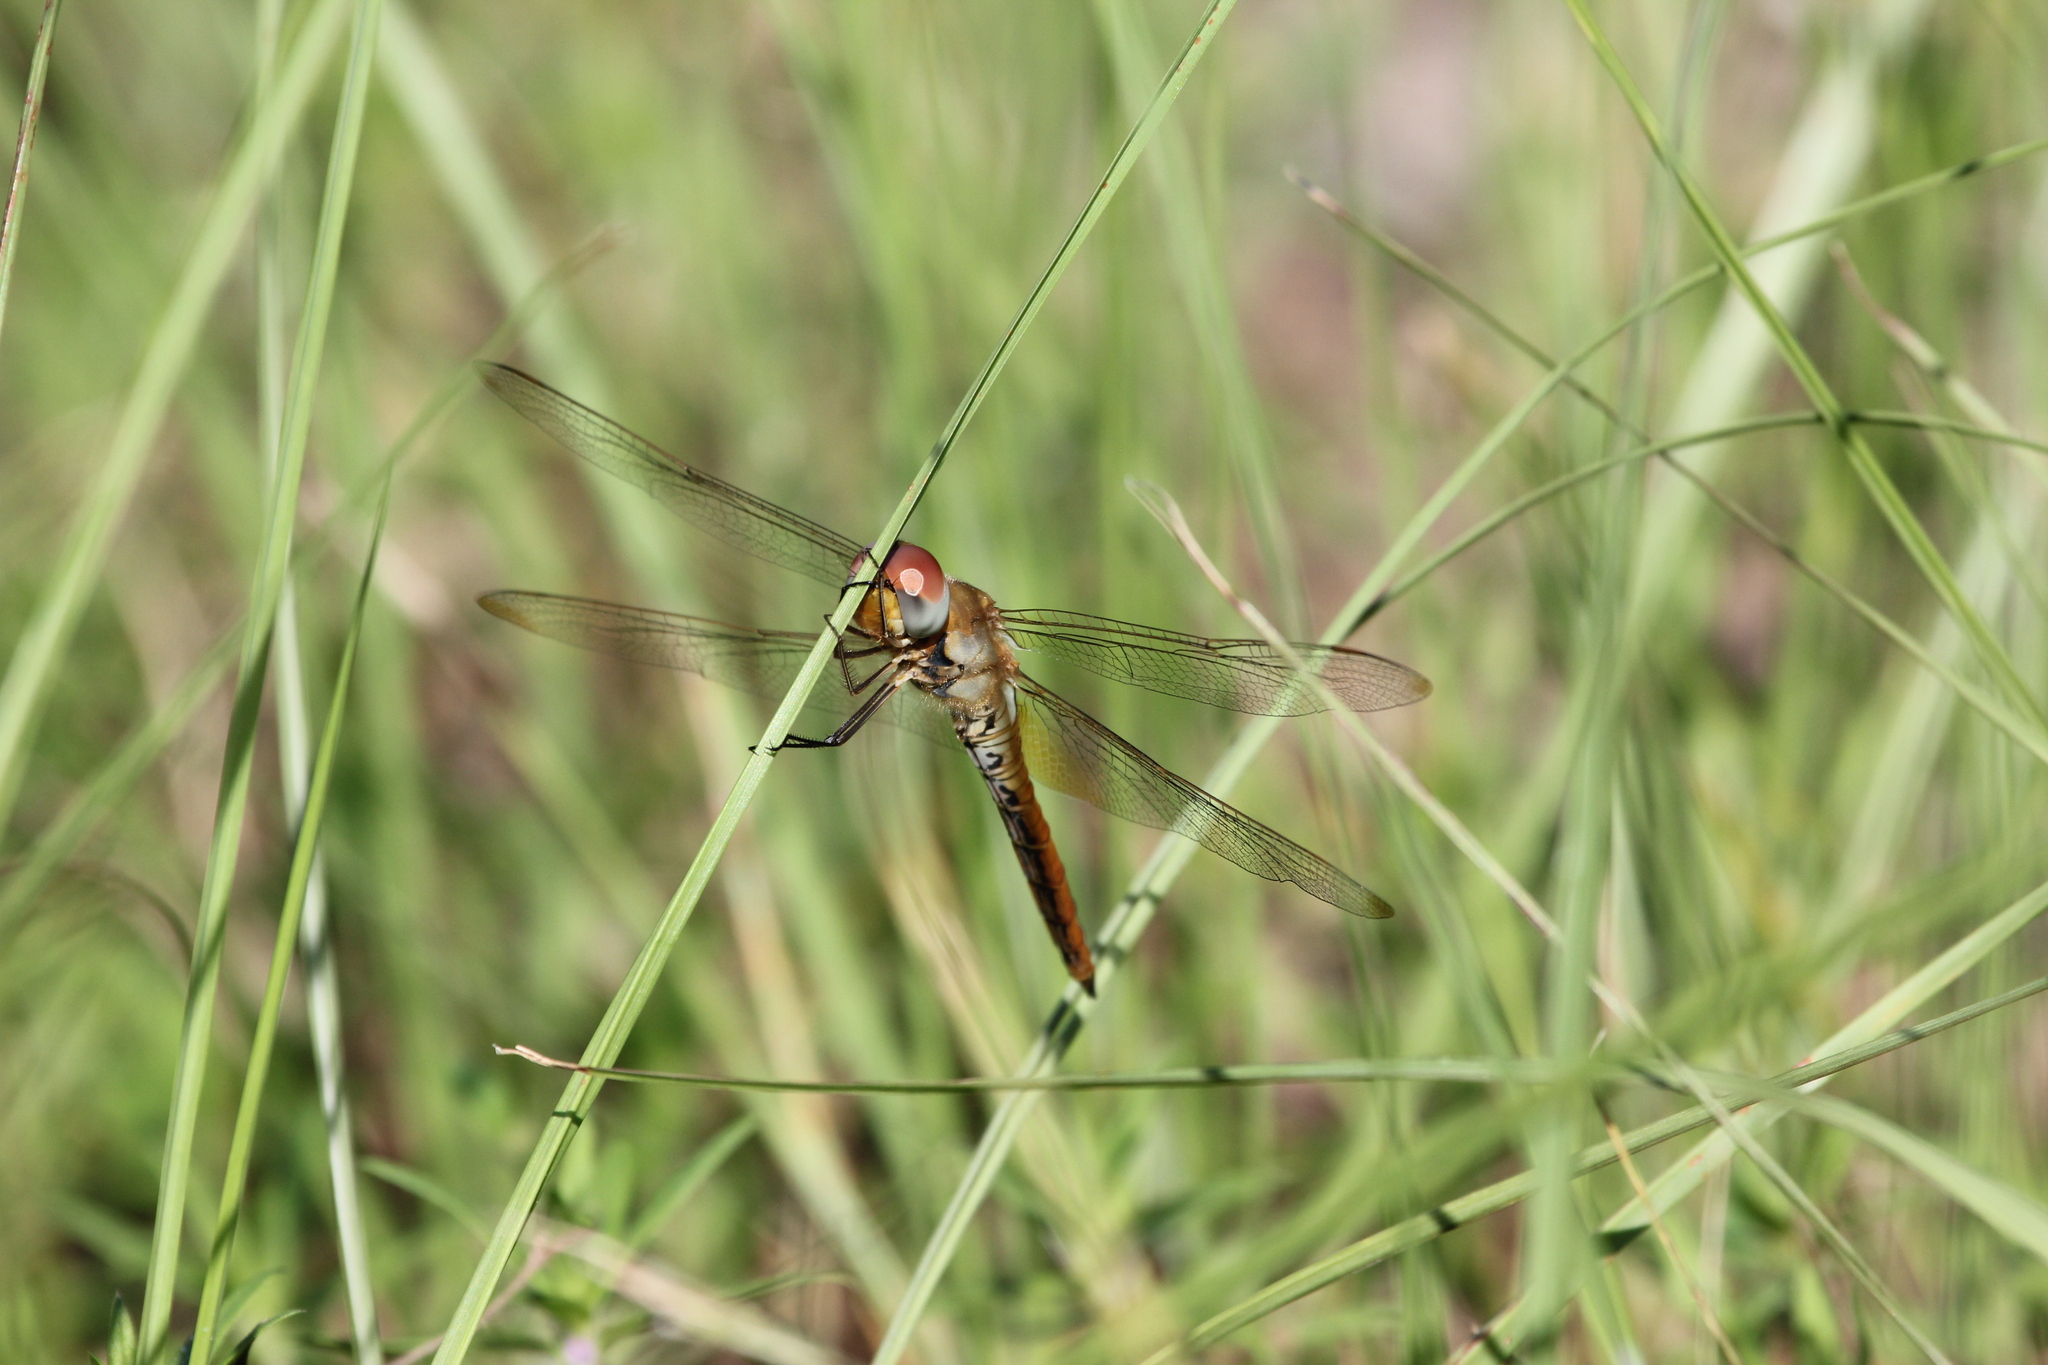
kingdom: Animalia
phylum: Arthropoda
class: Insecta
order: Odonata
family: Libellulidae
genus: Pantala
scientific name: Pantala flavescens
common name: Wandering glider
